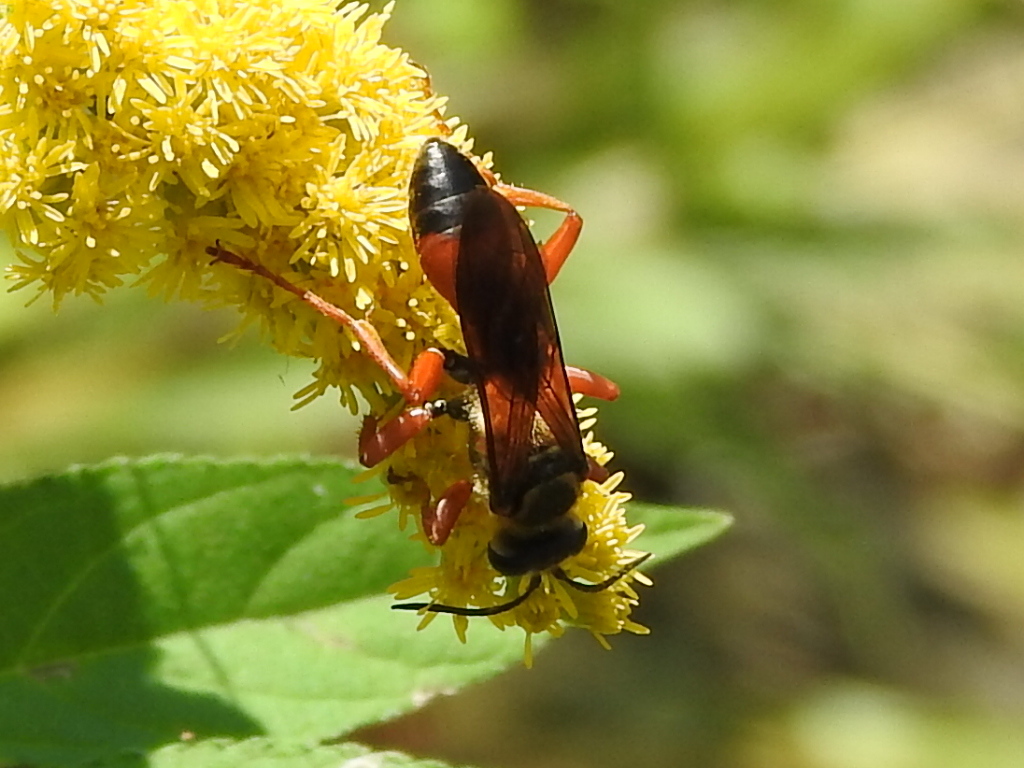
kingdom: Animalia
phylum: Arthropoda
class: Insecta
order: Hymenoptera
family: Sphecidae
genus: Sphex
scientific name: Sphex ichneumoneus
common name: Great golden digger wasp
